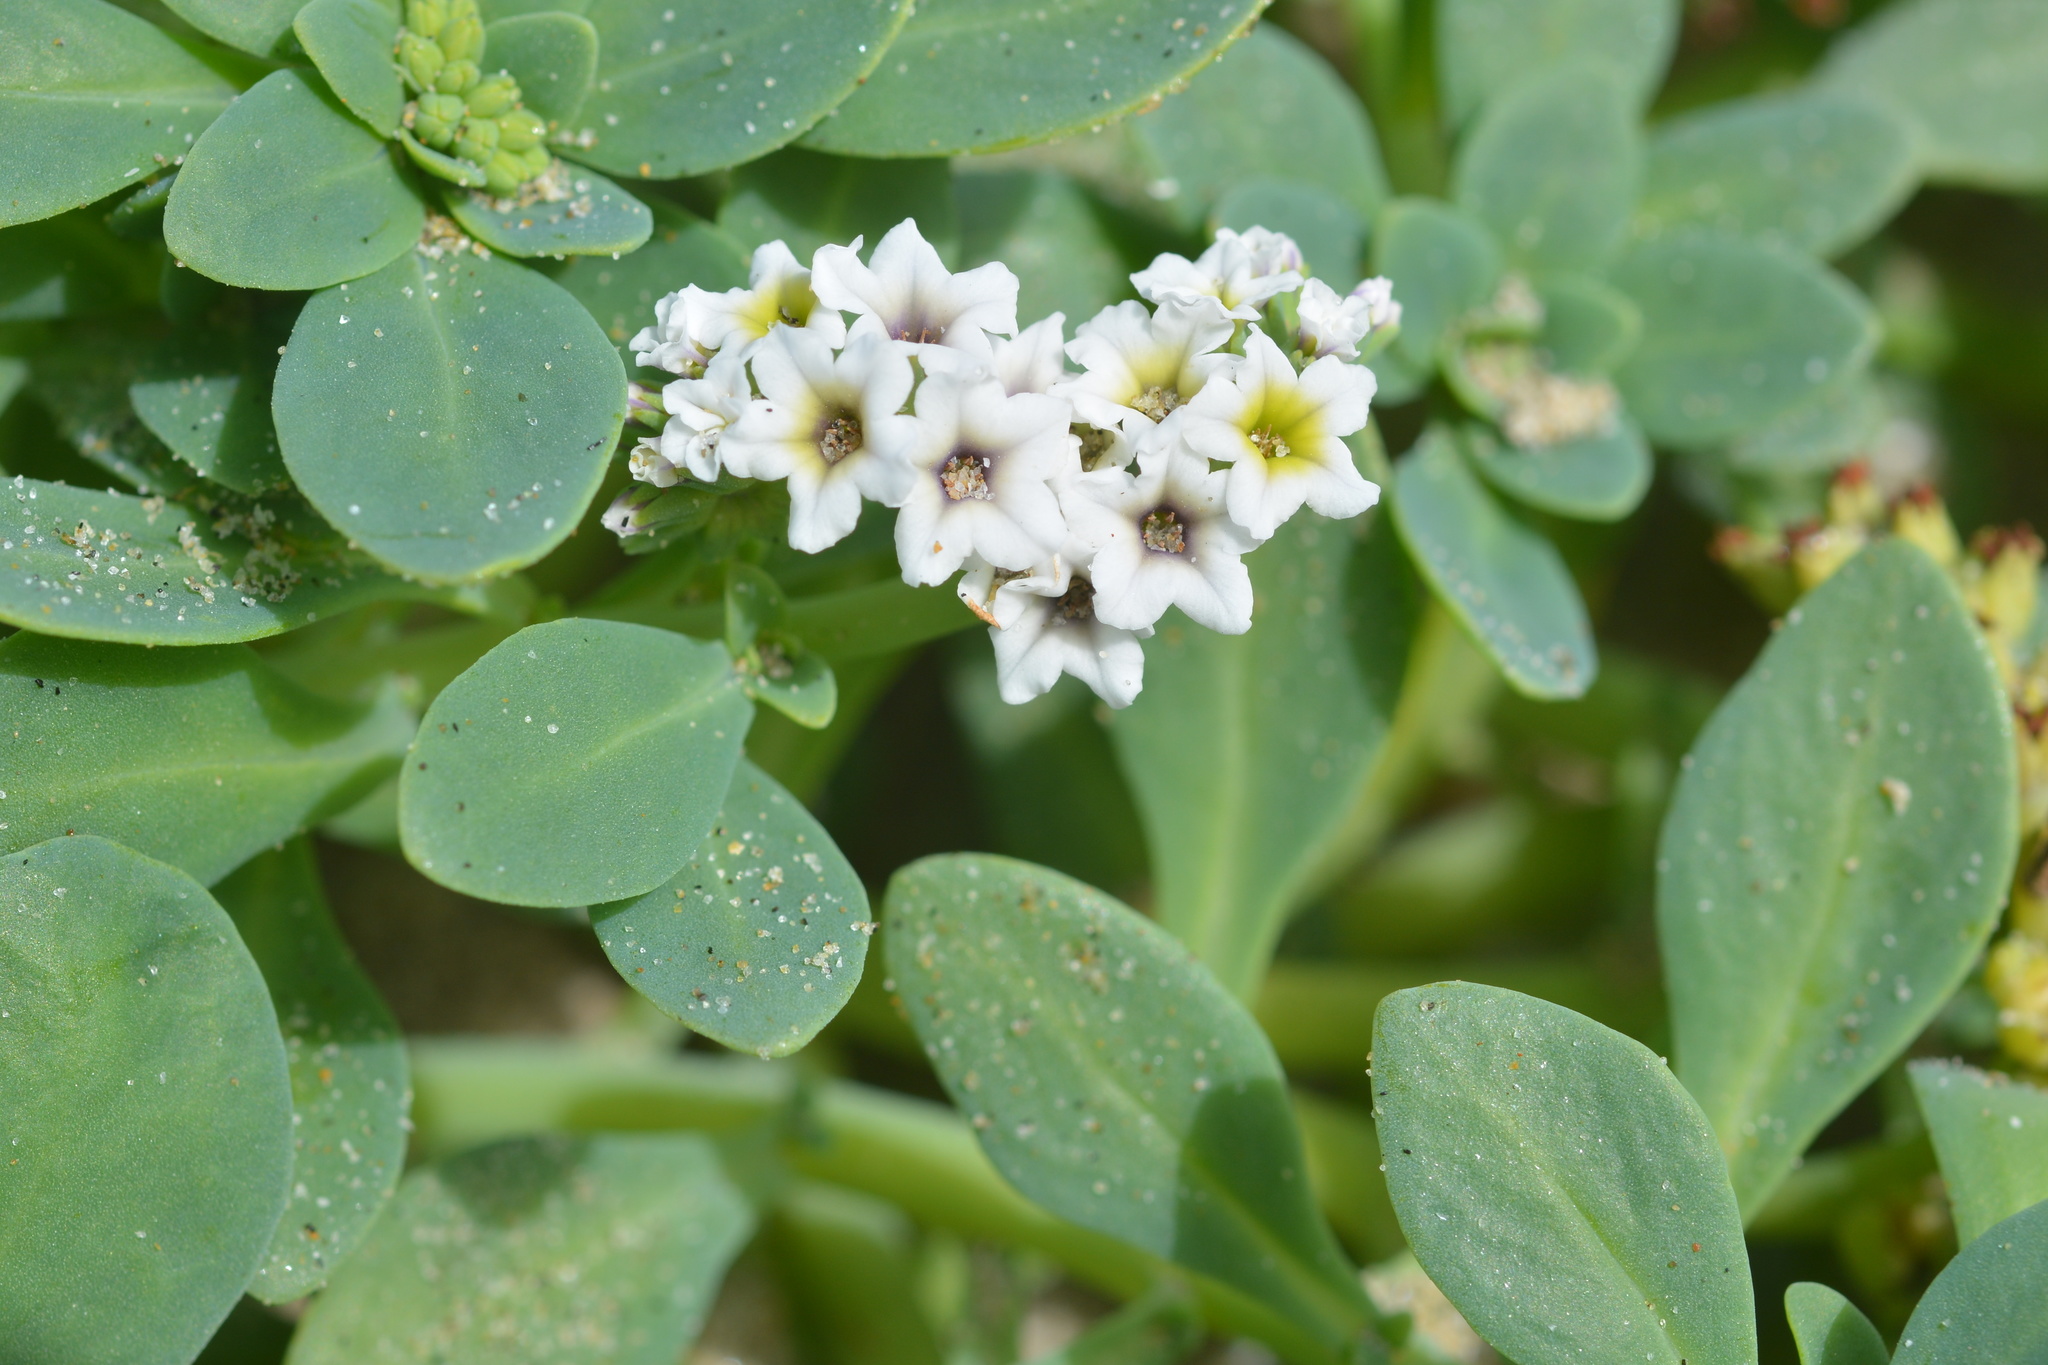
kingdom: Plantae
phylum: Tracheophyta
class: Magnoliopsida
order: Boraginales
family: Heliotropiaceae
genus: Heliotropium
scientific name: Heliotropium curassavicum
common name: Seaside heliotrope
